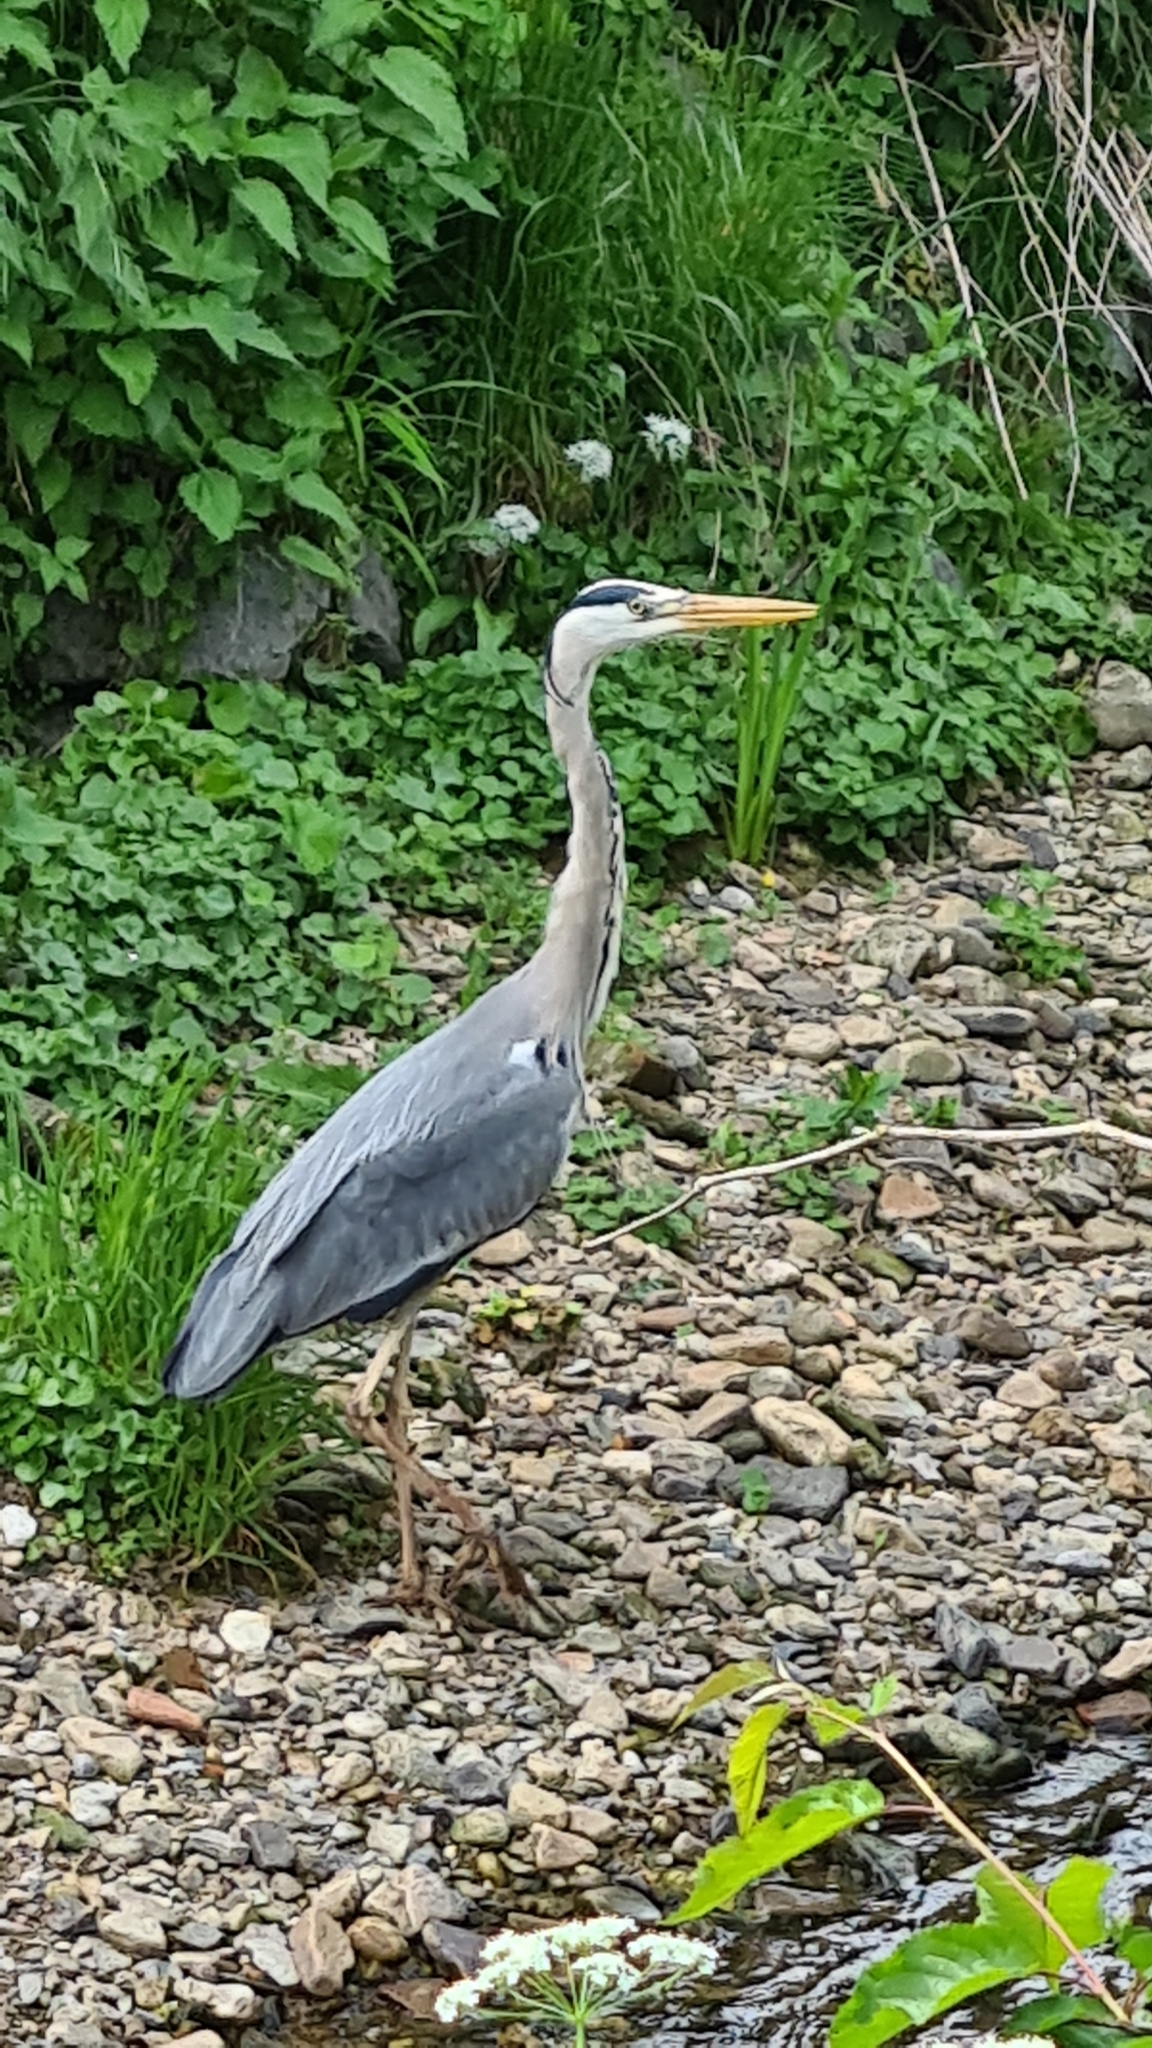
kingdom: Animalia
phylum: Chordata
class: Aves
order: Pelecaniformes
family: Ardeidae
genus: Ardea
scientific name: Ardea cinerea
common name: Grey heron
